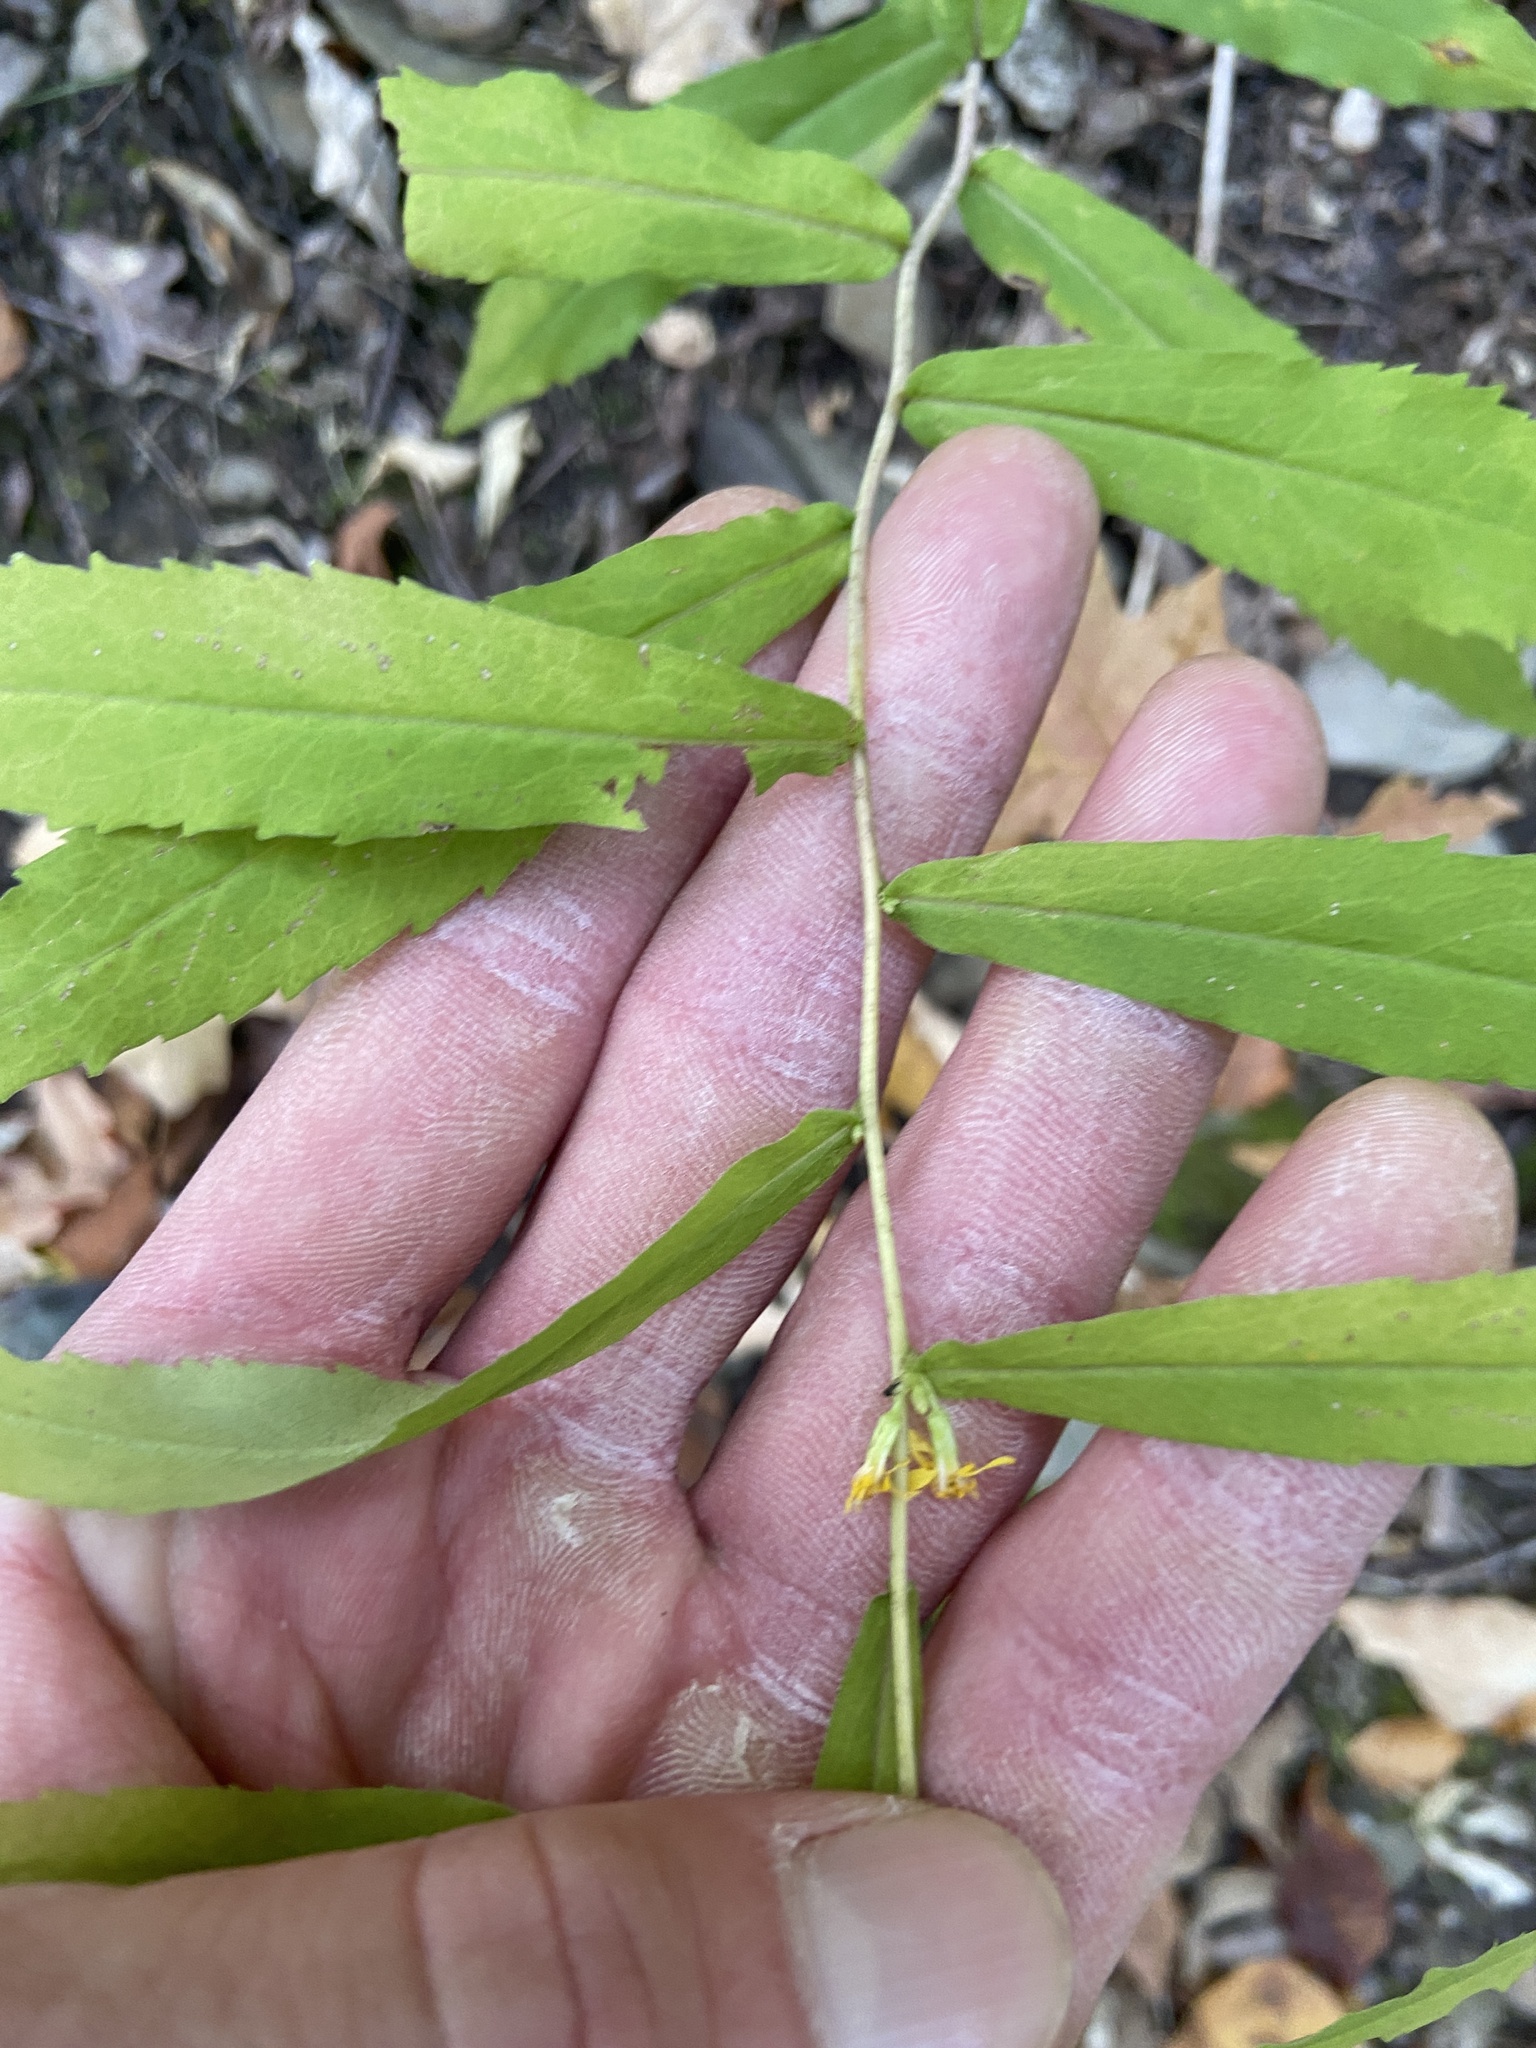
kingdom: Plantae
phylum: Tracheophyta
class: Magnoliopsida
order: Asterales
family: Asteraceae
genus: Solidago
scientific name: Solidago caesia
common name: Woodland goldenrod
